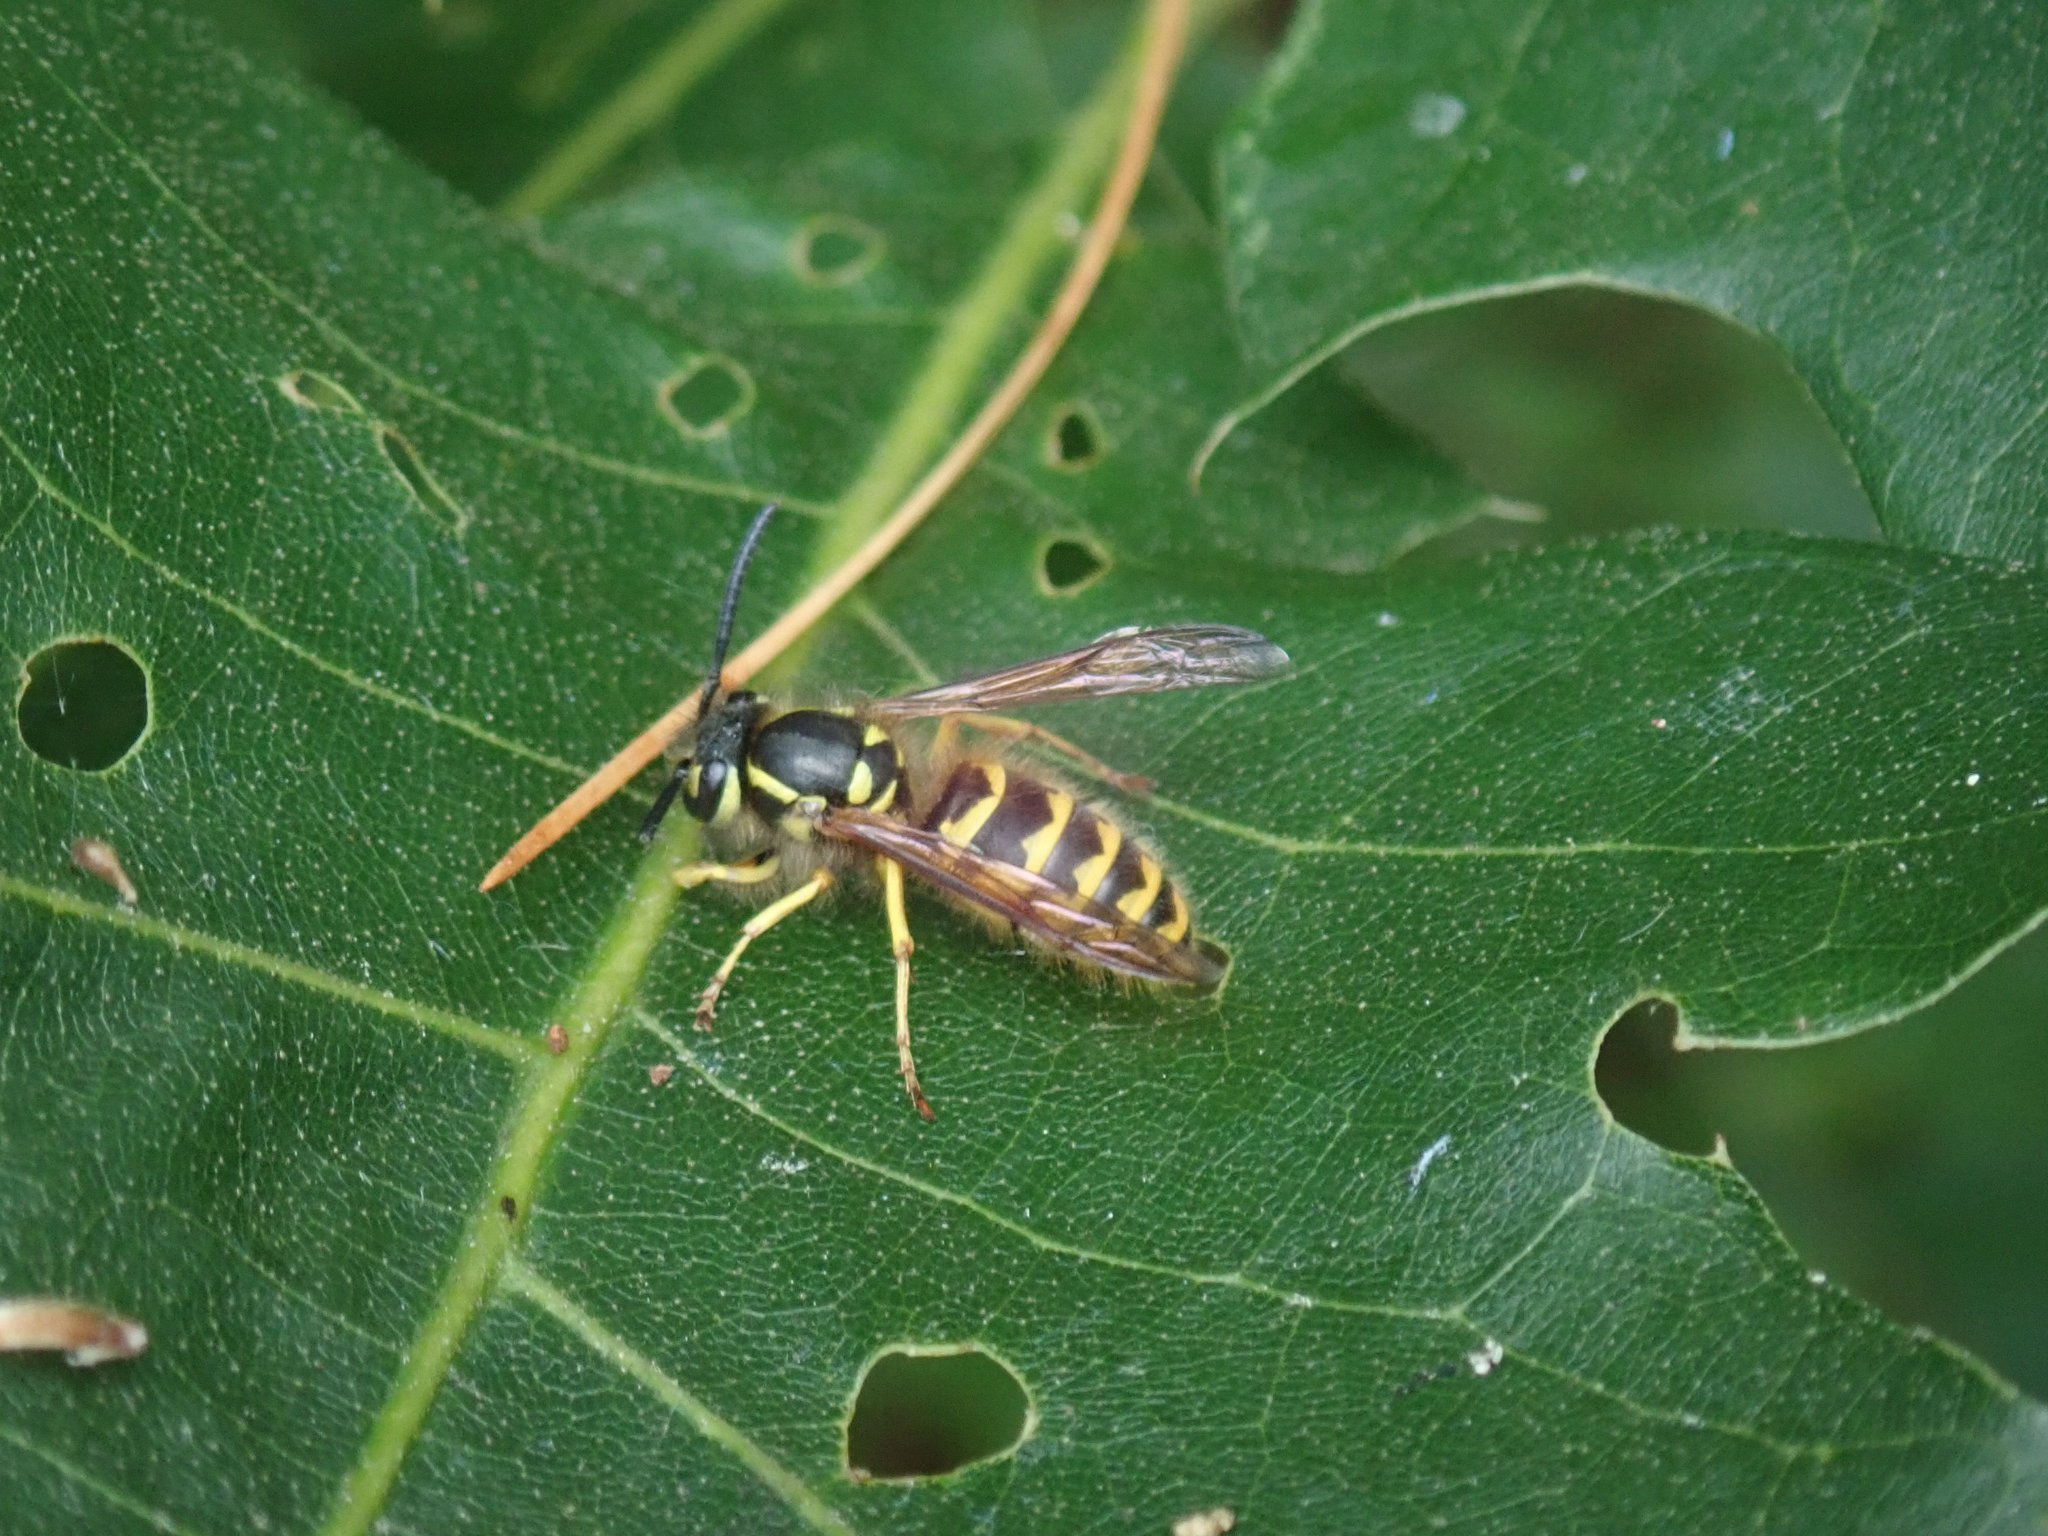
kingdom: Animalia
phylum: Arthropoda
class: Insecta
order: Hymenoptera
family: Vespidae
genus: Vespula
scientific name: Vespula flavopilosa
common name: Downy yellowjacket
